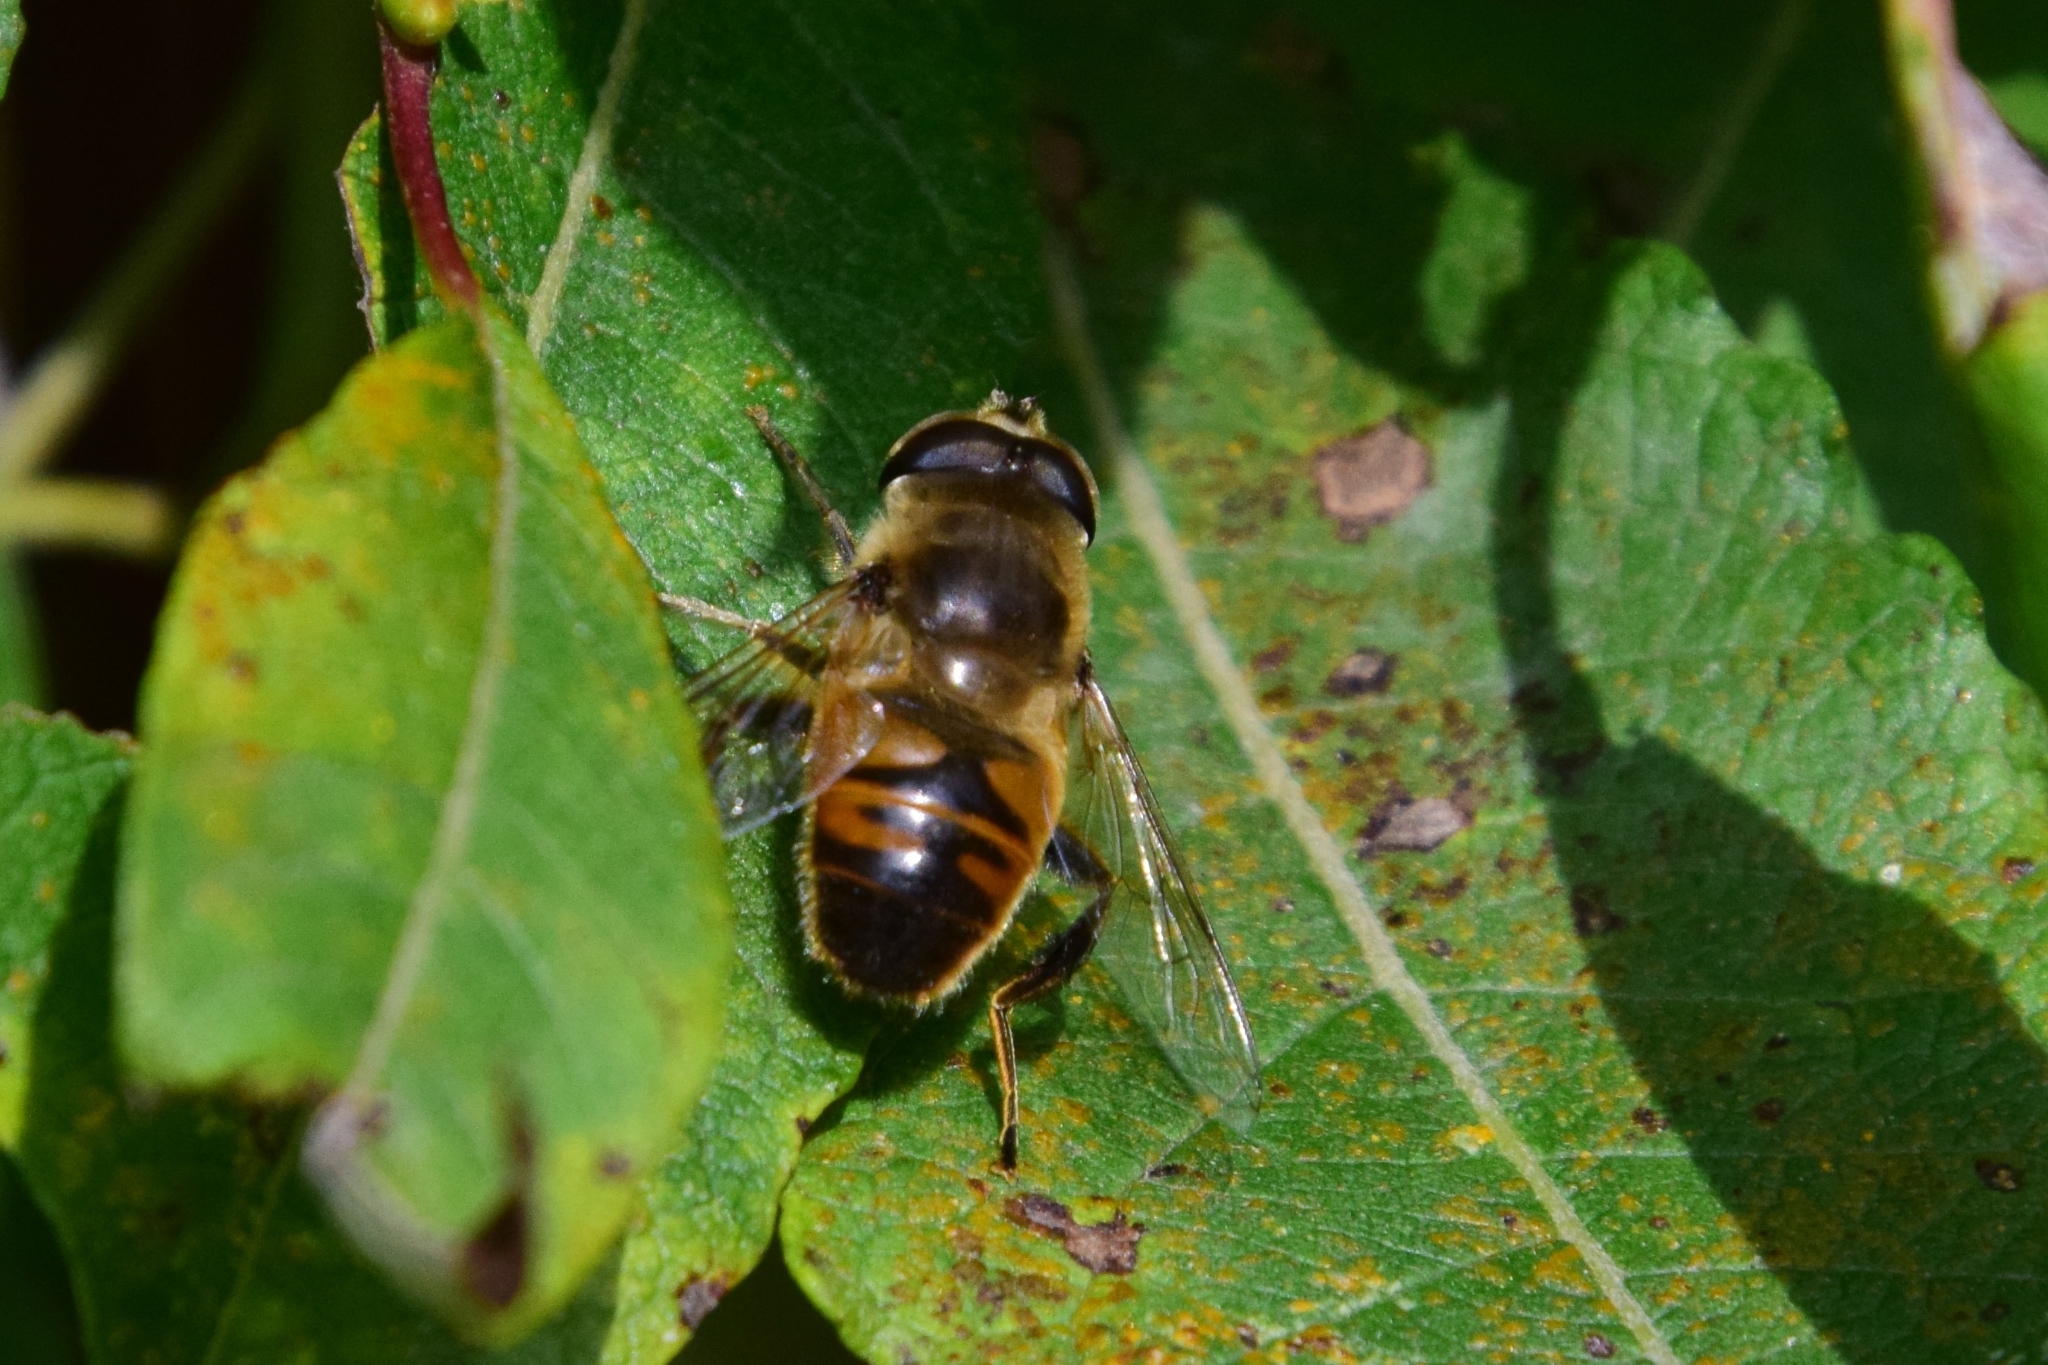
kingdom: Animalia
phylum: Arthropoda
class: Insecta
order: Diptera
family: Syrphidae
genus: Eristalis
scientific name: Eristalis tenax
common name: Drone fly
